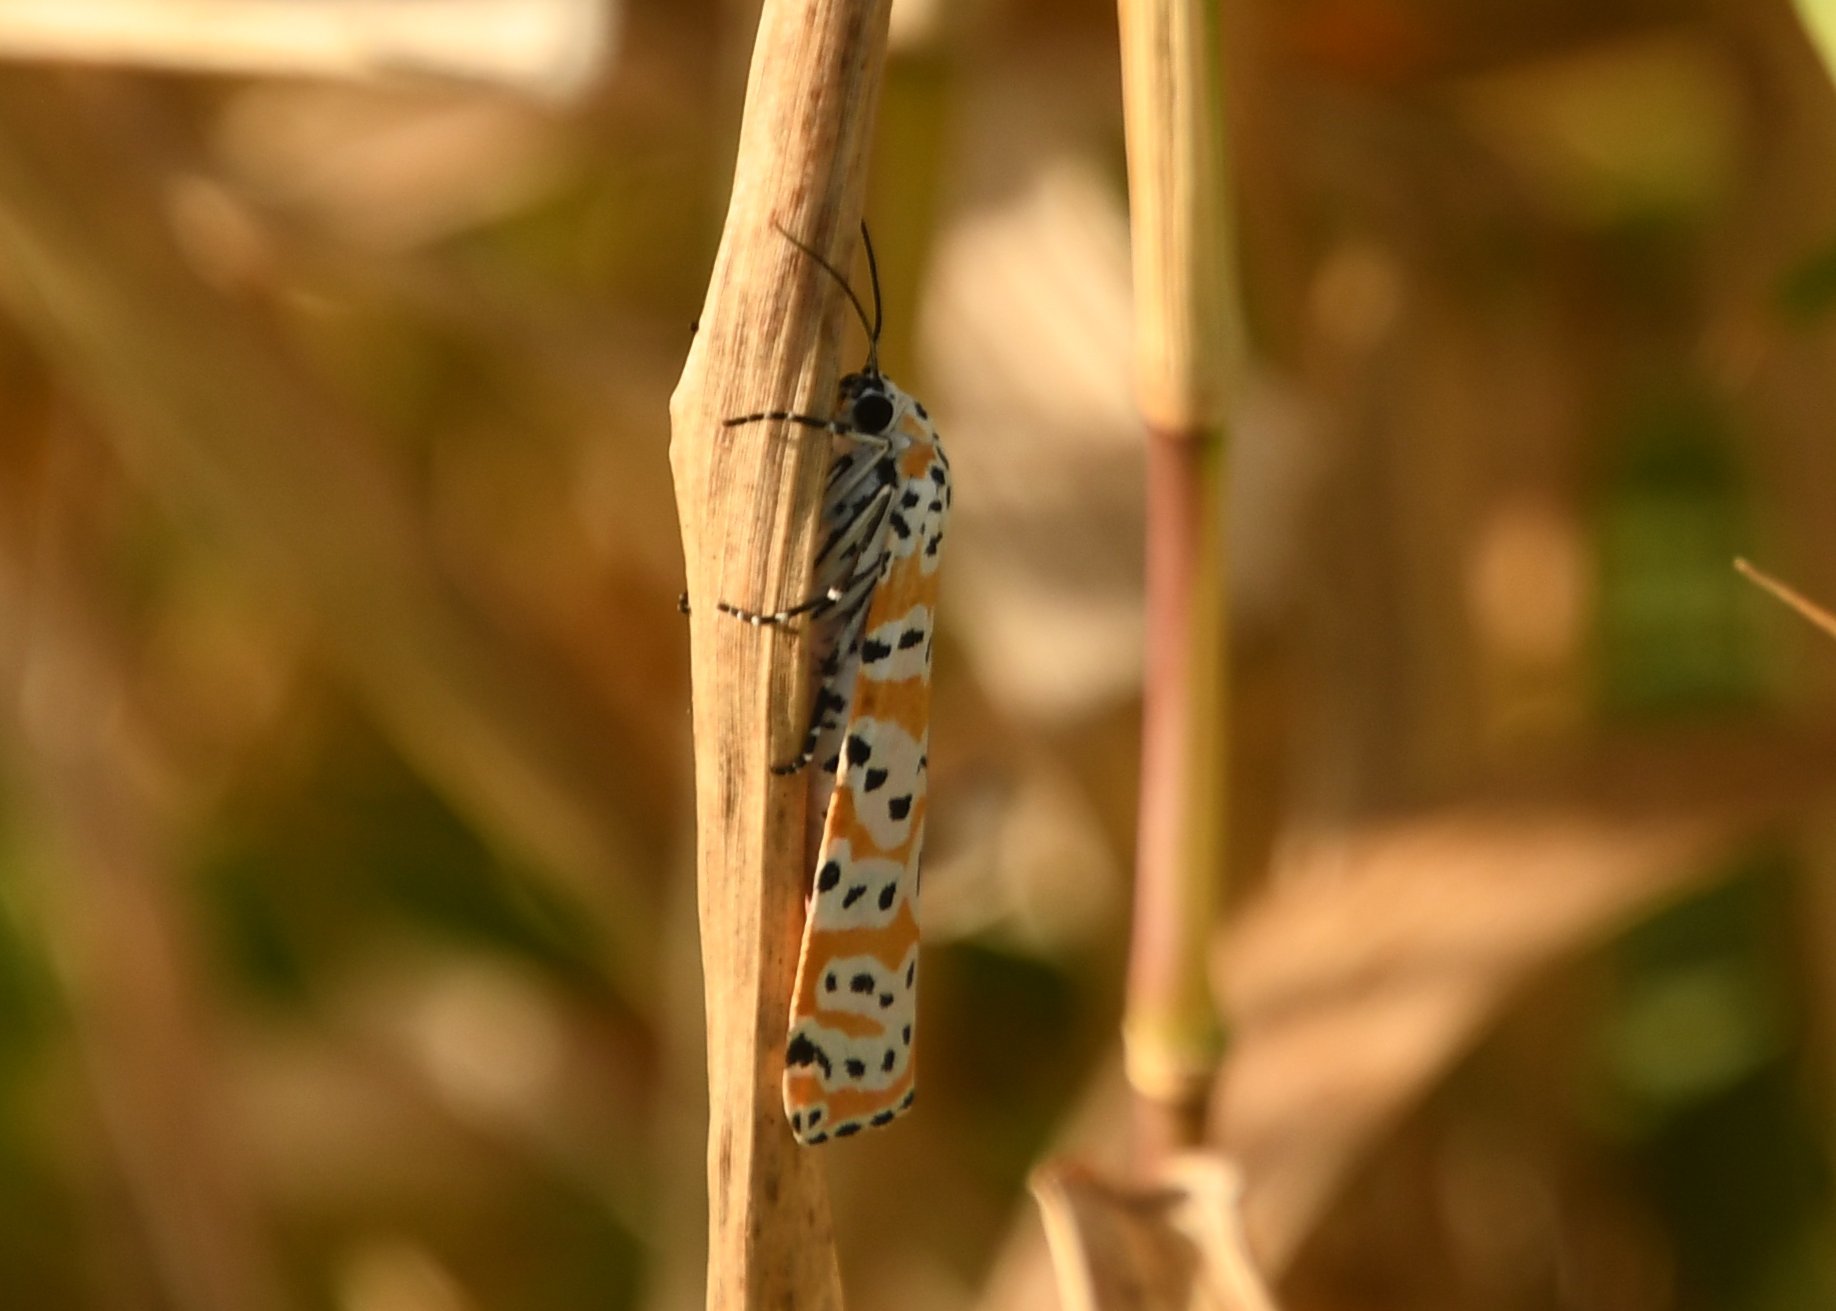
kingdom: Animalia
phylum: Arthropoda
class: Insecta
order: Lepidoptera
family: Erebidae
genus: Utetheisa
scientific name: Utetheisa ornatrix
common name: Beautiful utetheisa
